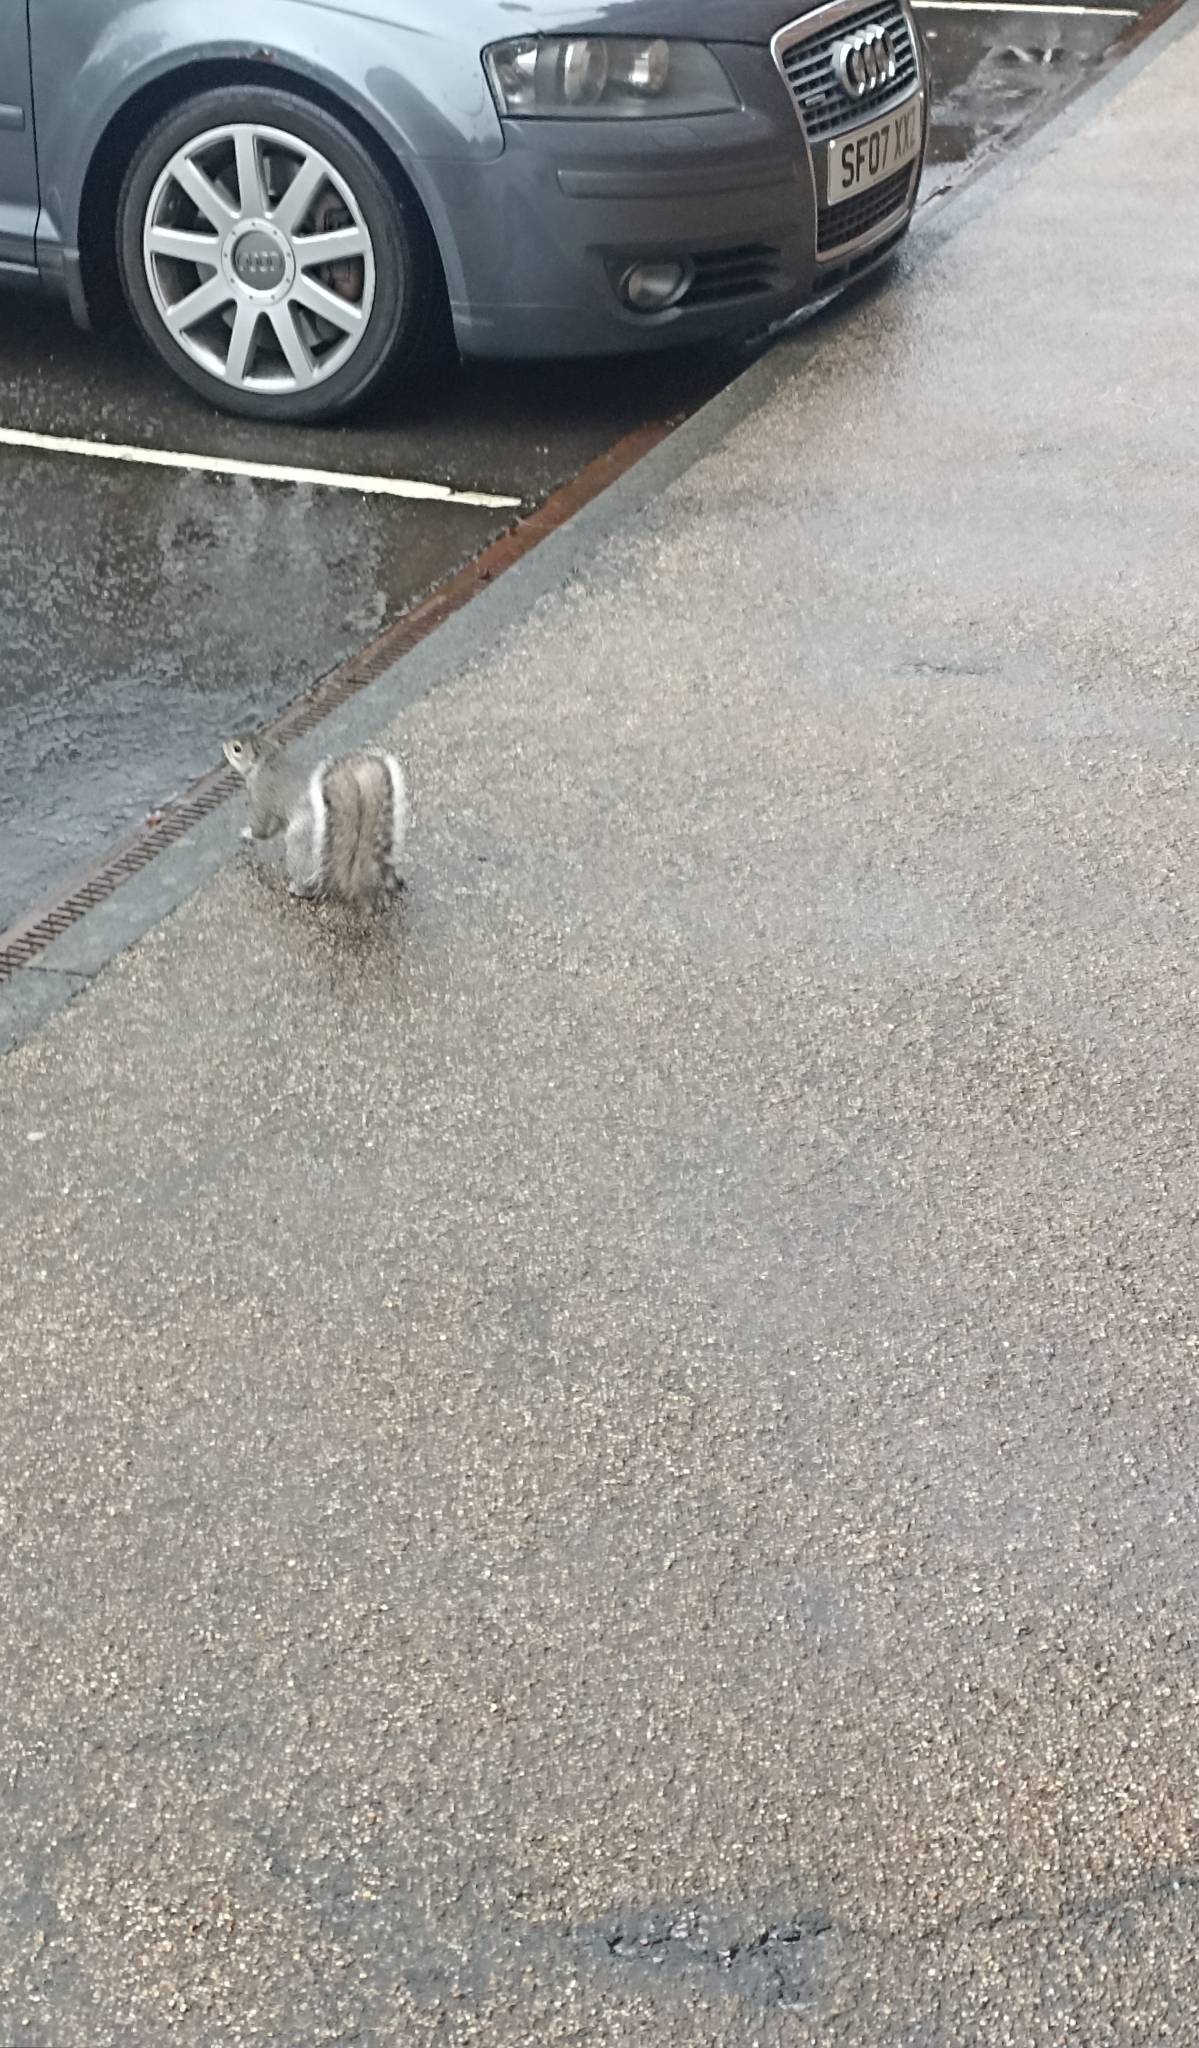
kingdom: Animalia
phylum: Chordata
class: Mammalia
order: Rodentia
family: Sciuridae
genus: Sciurus
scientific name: Sciurus carolinensis
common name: Eastern gray squirrel
